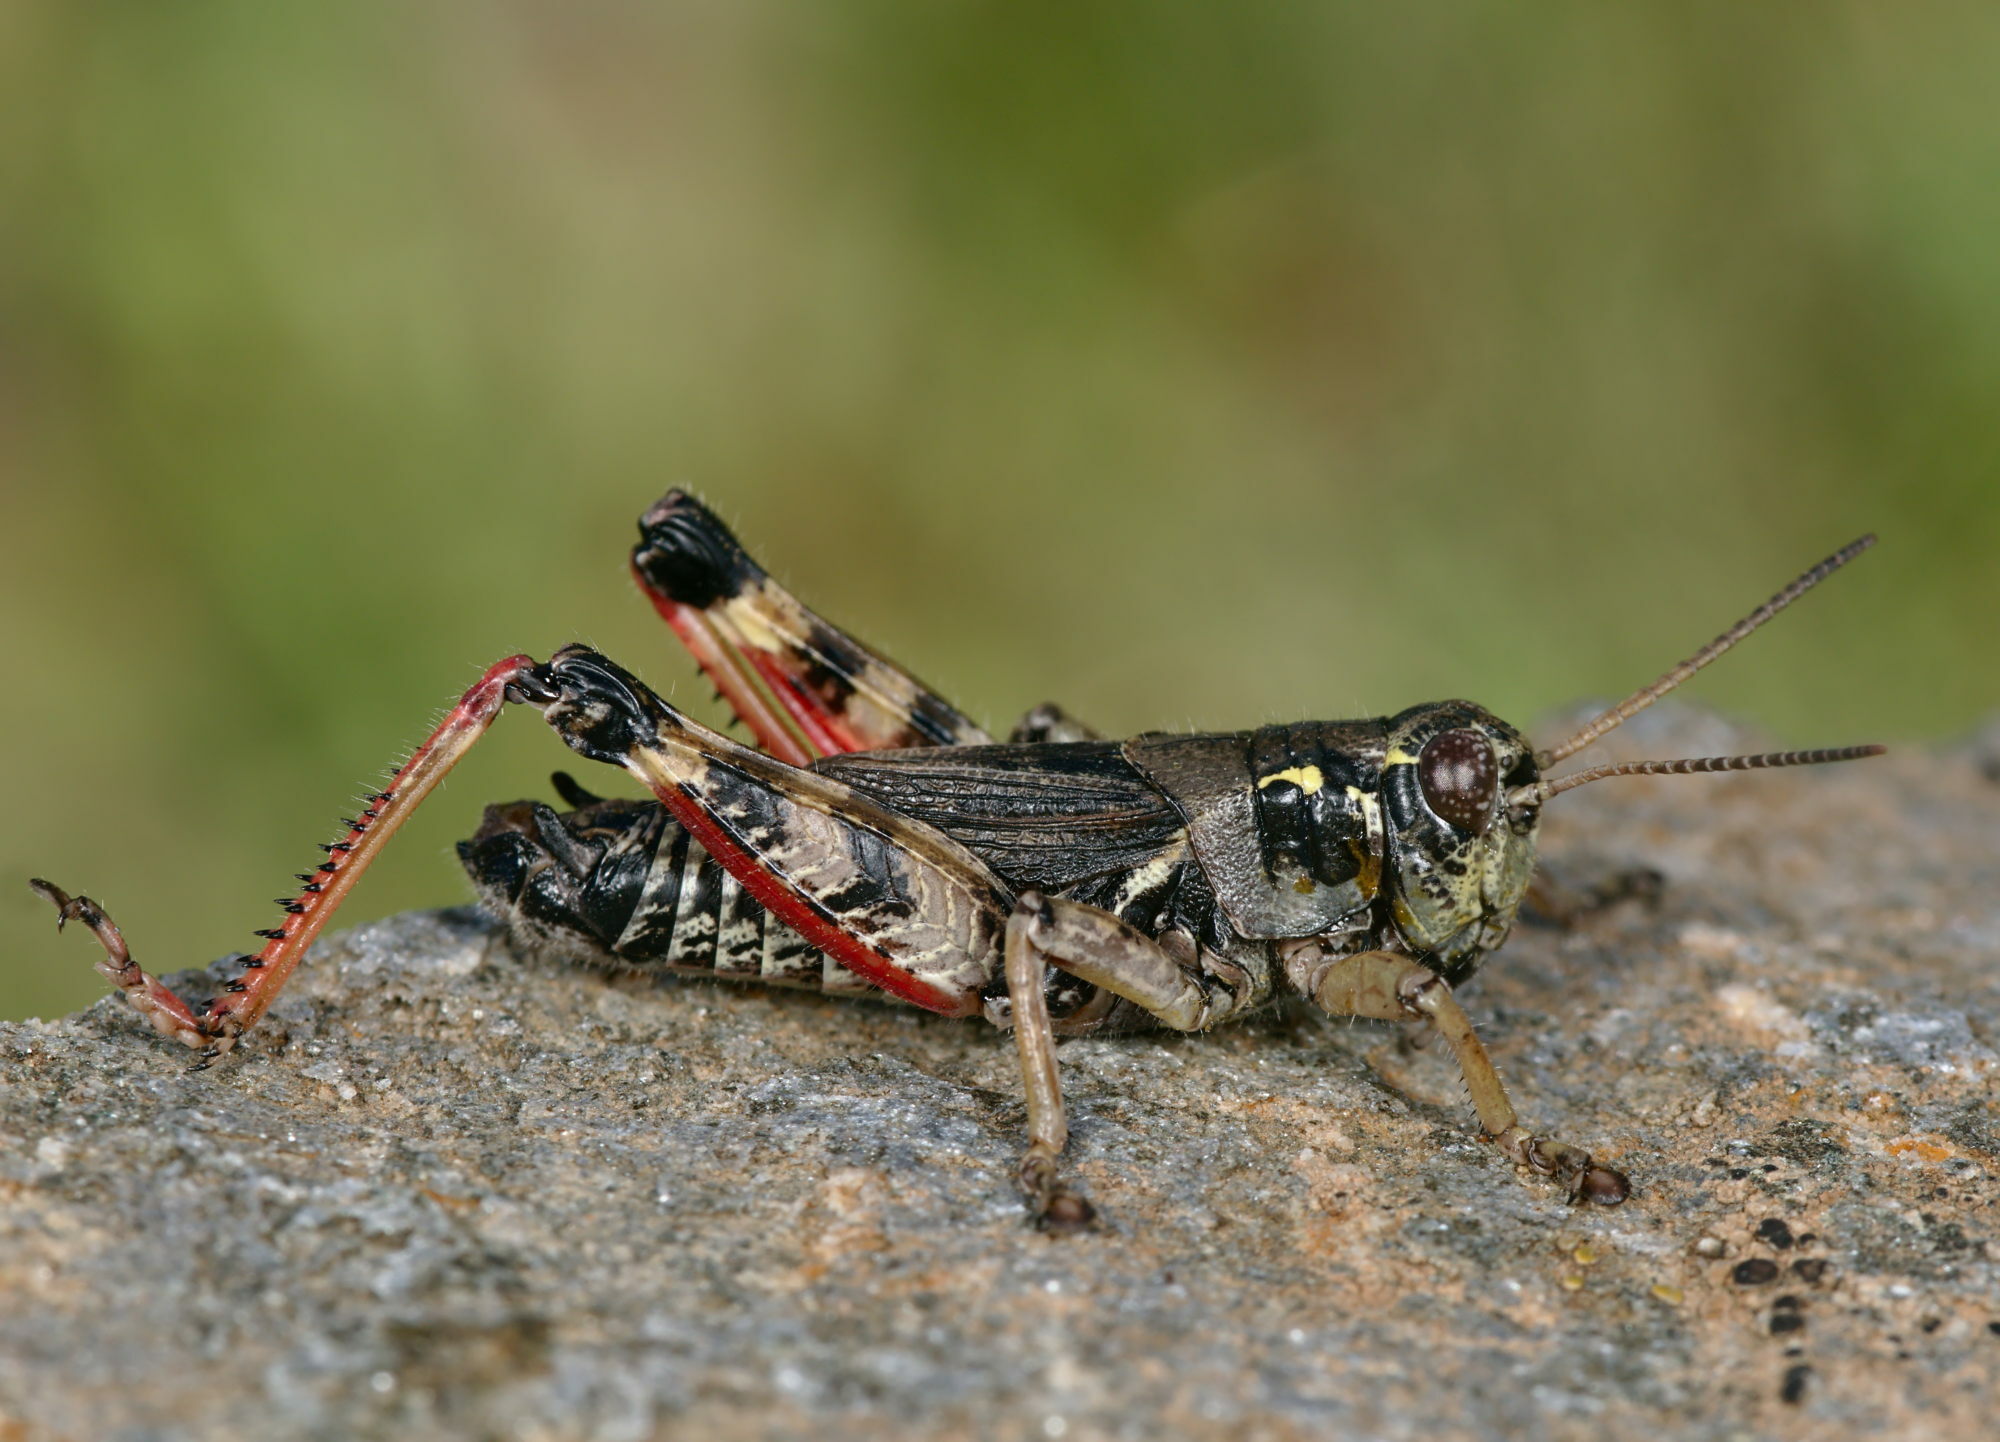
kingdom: Animalia
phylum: Arthropoda
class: Insecta
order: Orthoptera
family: Acrididae
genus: Bohemanella
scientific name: Bohemanella frigida
